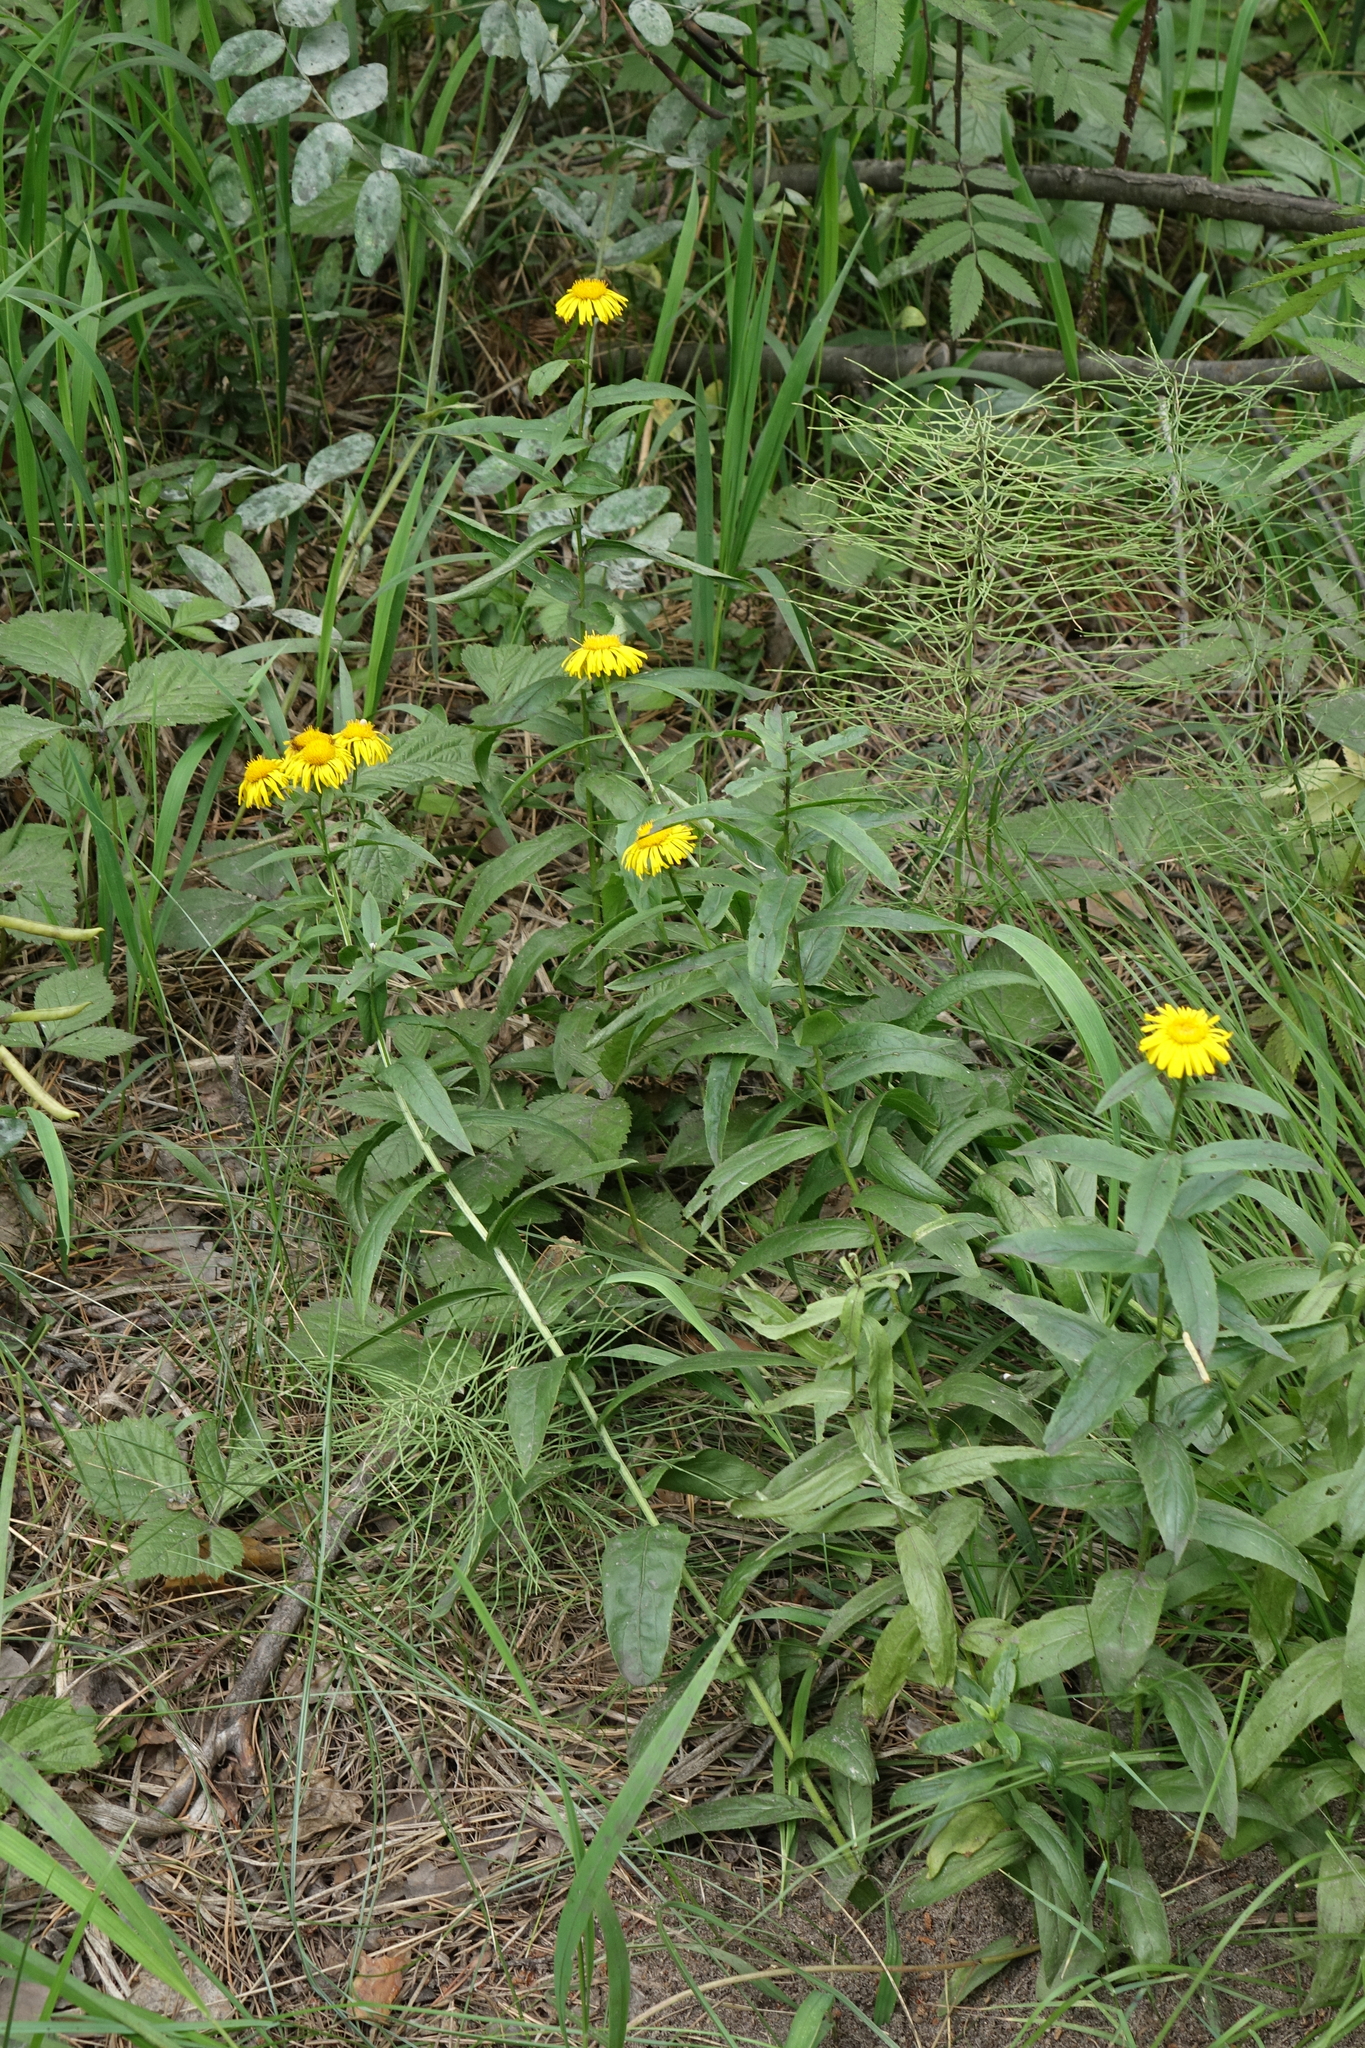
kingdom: Plantae
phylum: Tracheophyta
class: Magnoliopsida
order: Asterales
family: Asteraceae
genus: Pentanema
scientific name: Pentanema salicinum
